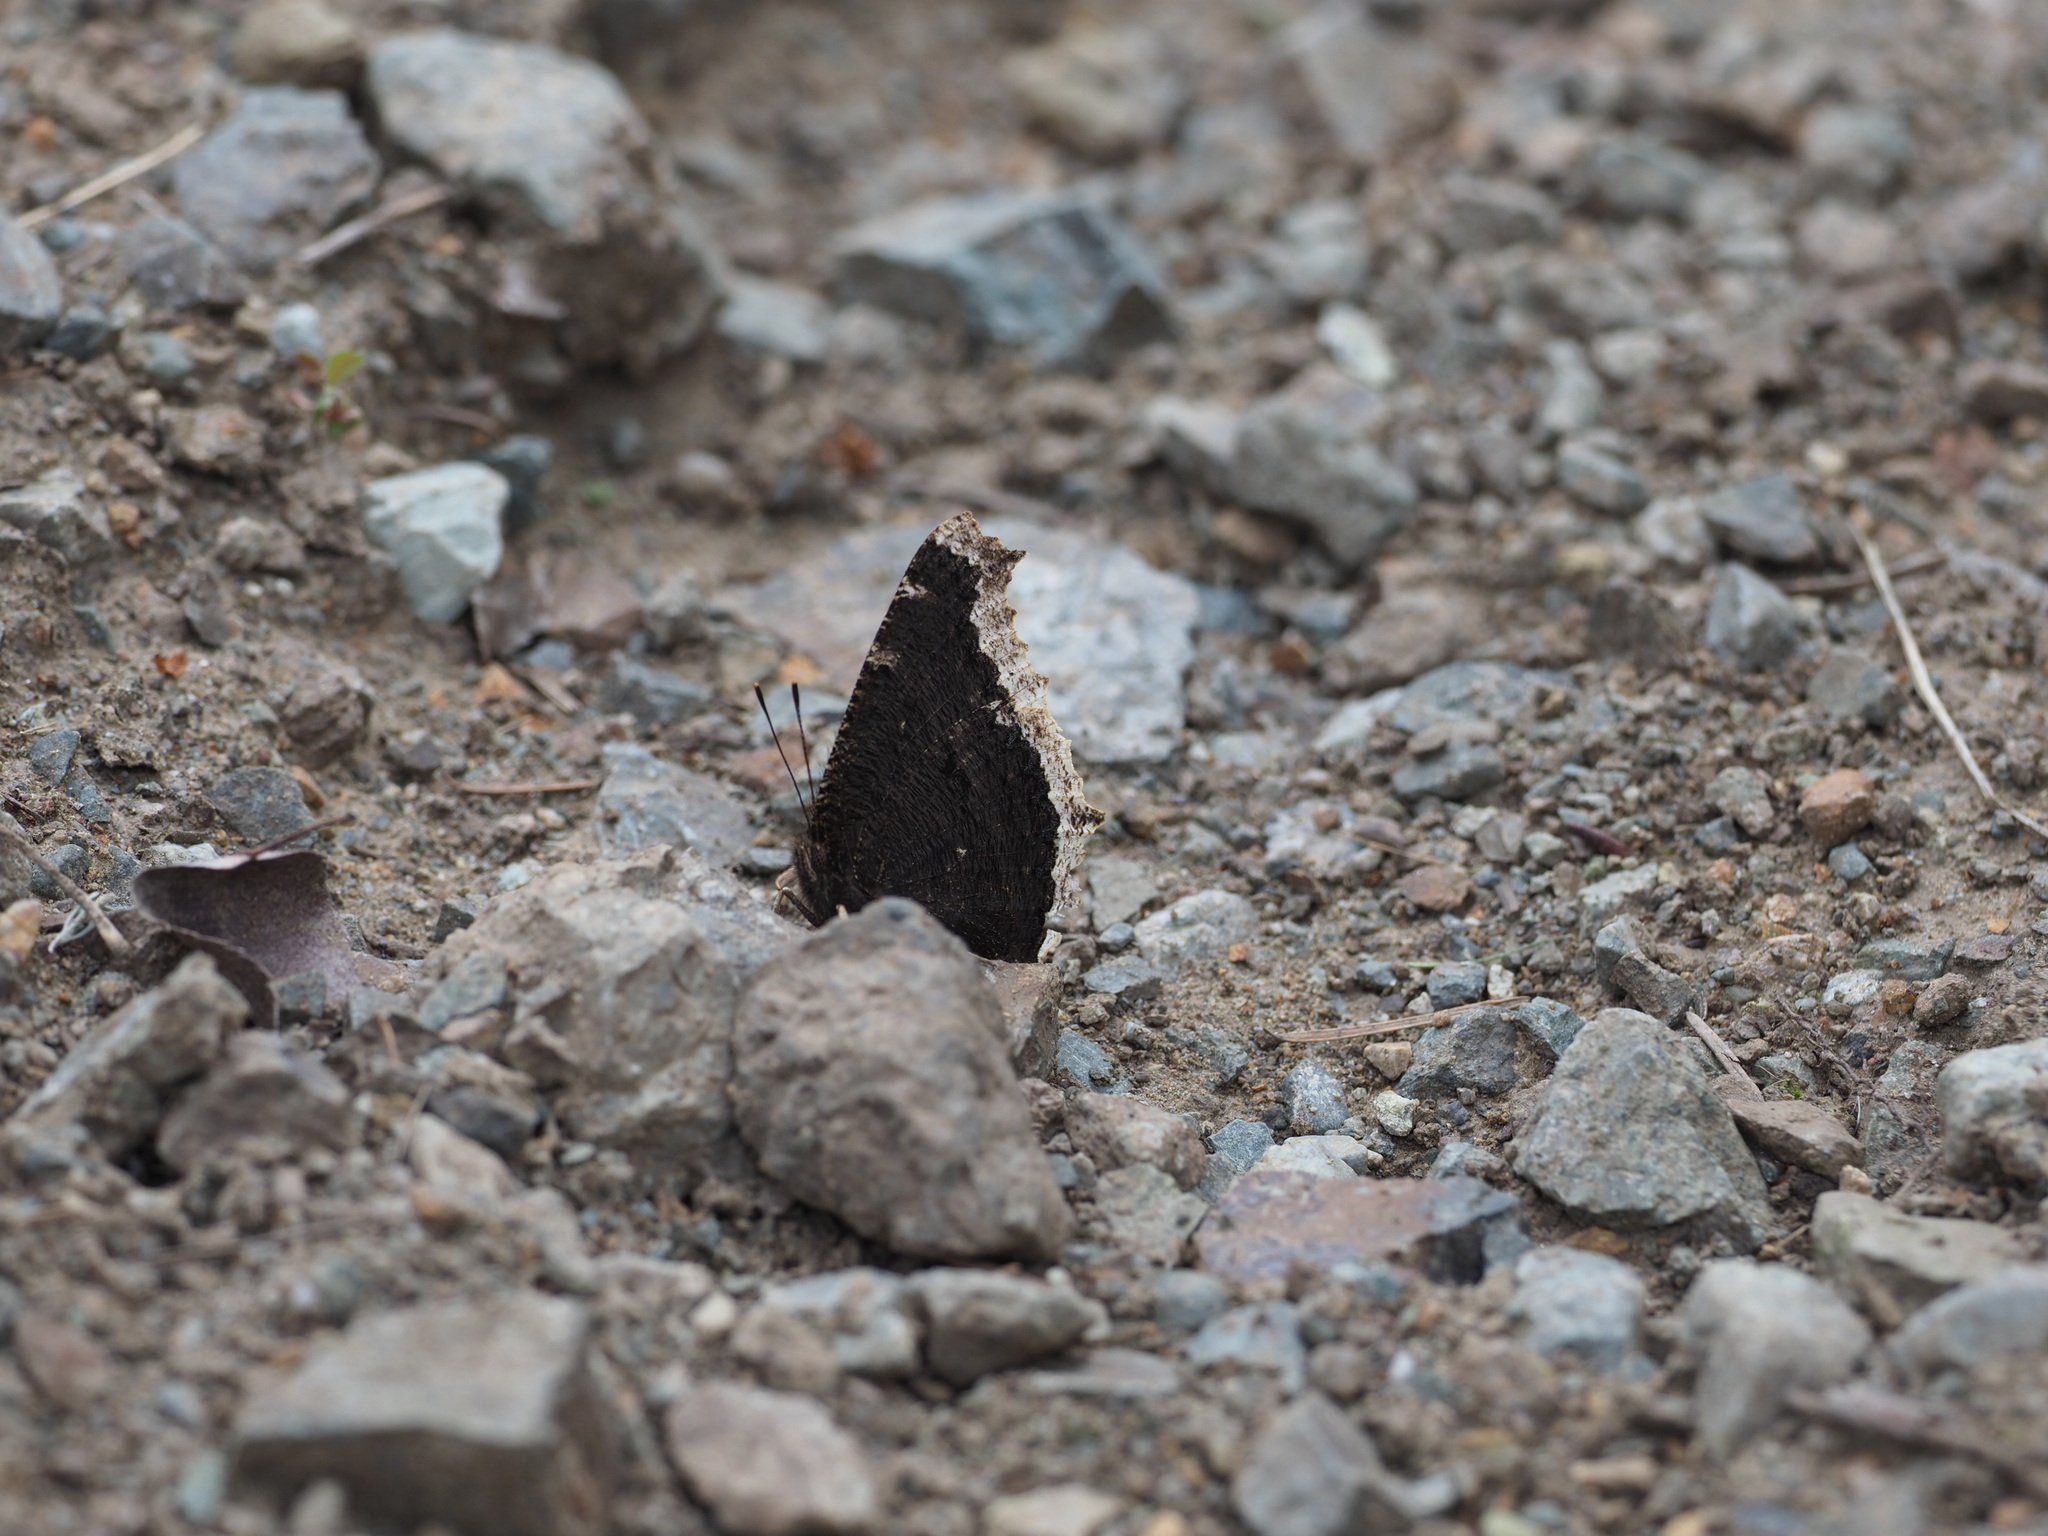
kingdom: Animalia
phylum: Arthropoda
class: Insecta
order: Lepidoptera
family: Nymphalidae
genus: Nymphalis
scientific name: Nymphalis antiopa
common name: Camberwell beauty
